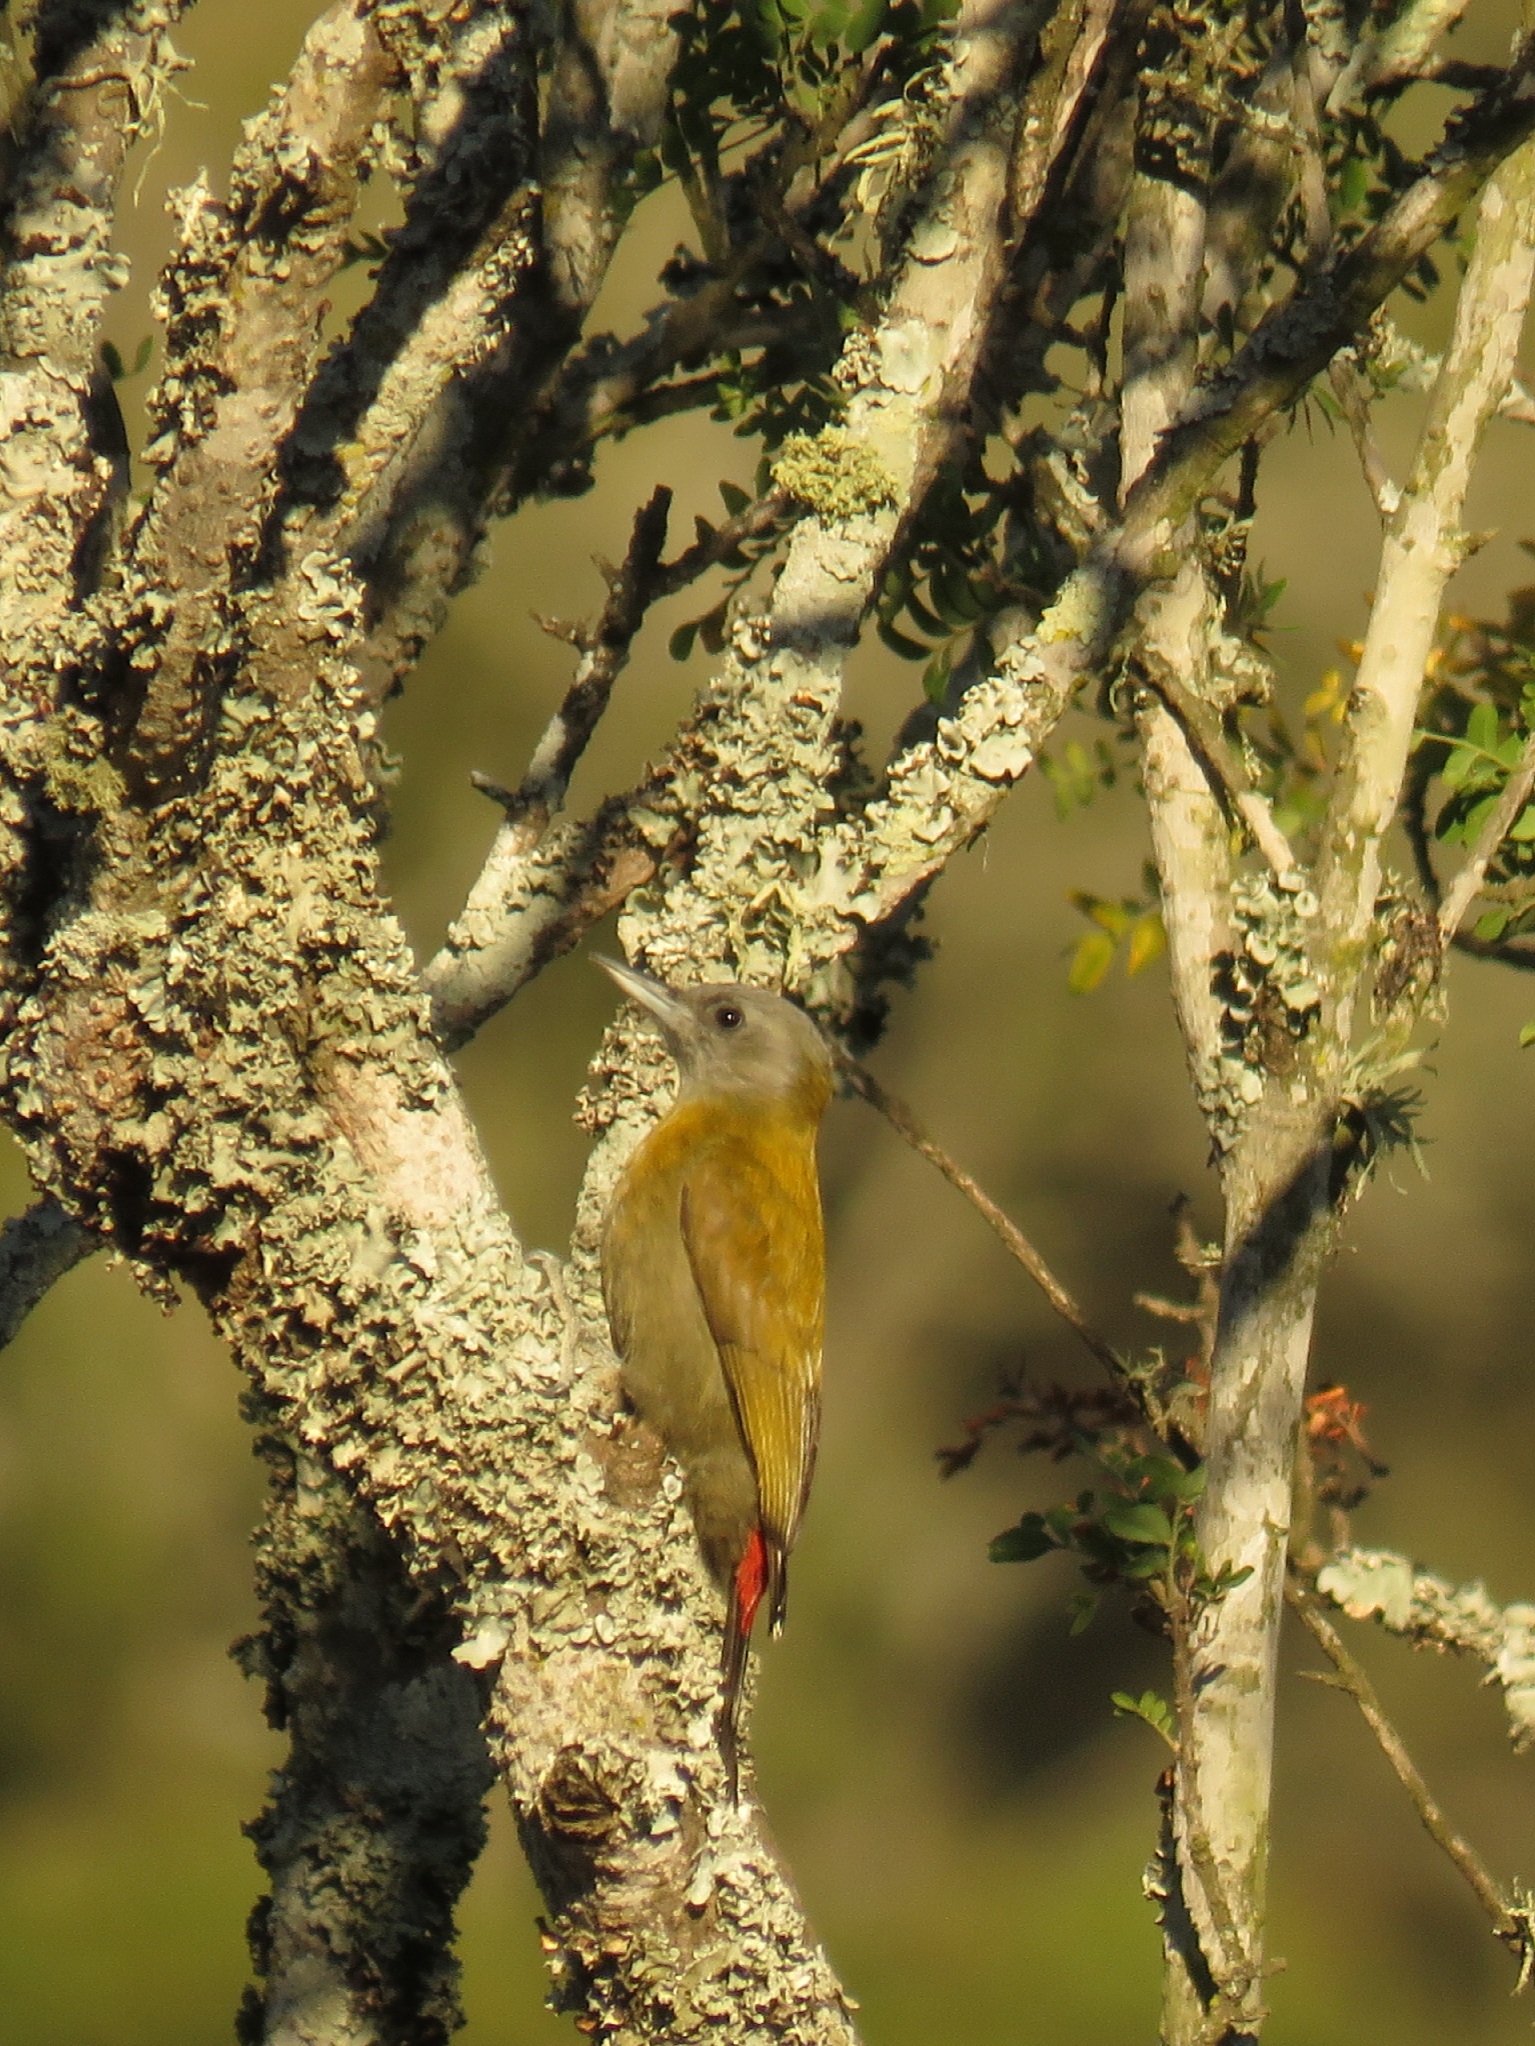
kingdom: Animalia
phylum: Chordata
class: Aves
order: Piciformes
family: Picidae
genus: Dendropicos
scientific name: Dendropicos griseocephalus
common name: Olive woodpecker
